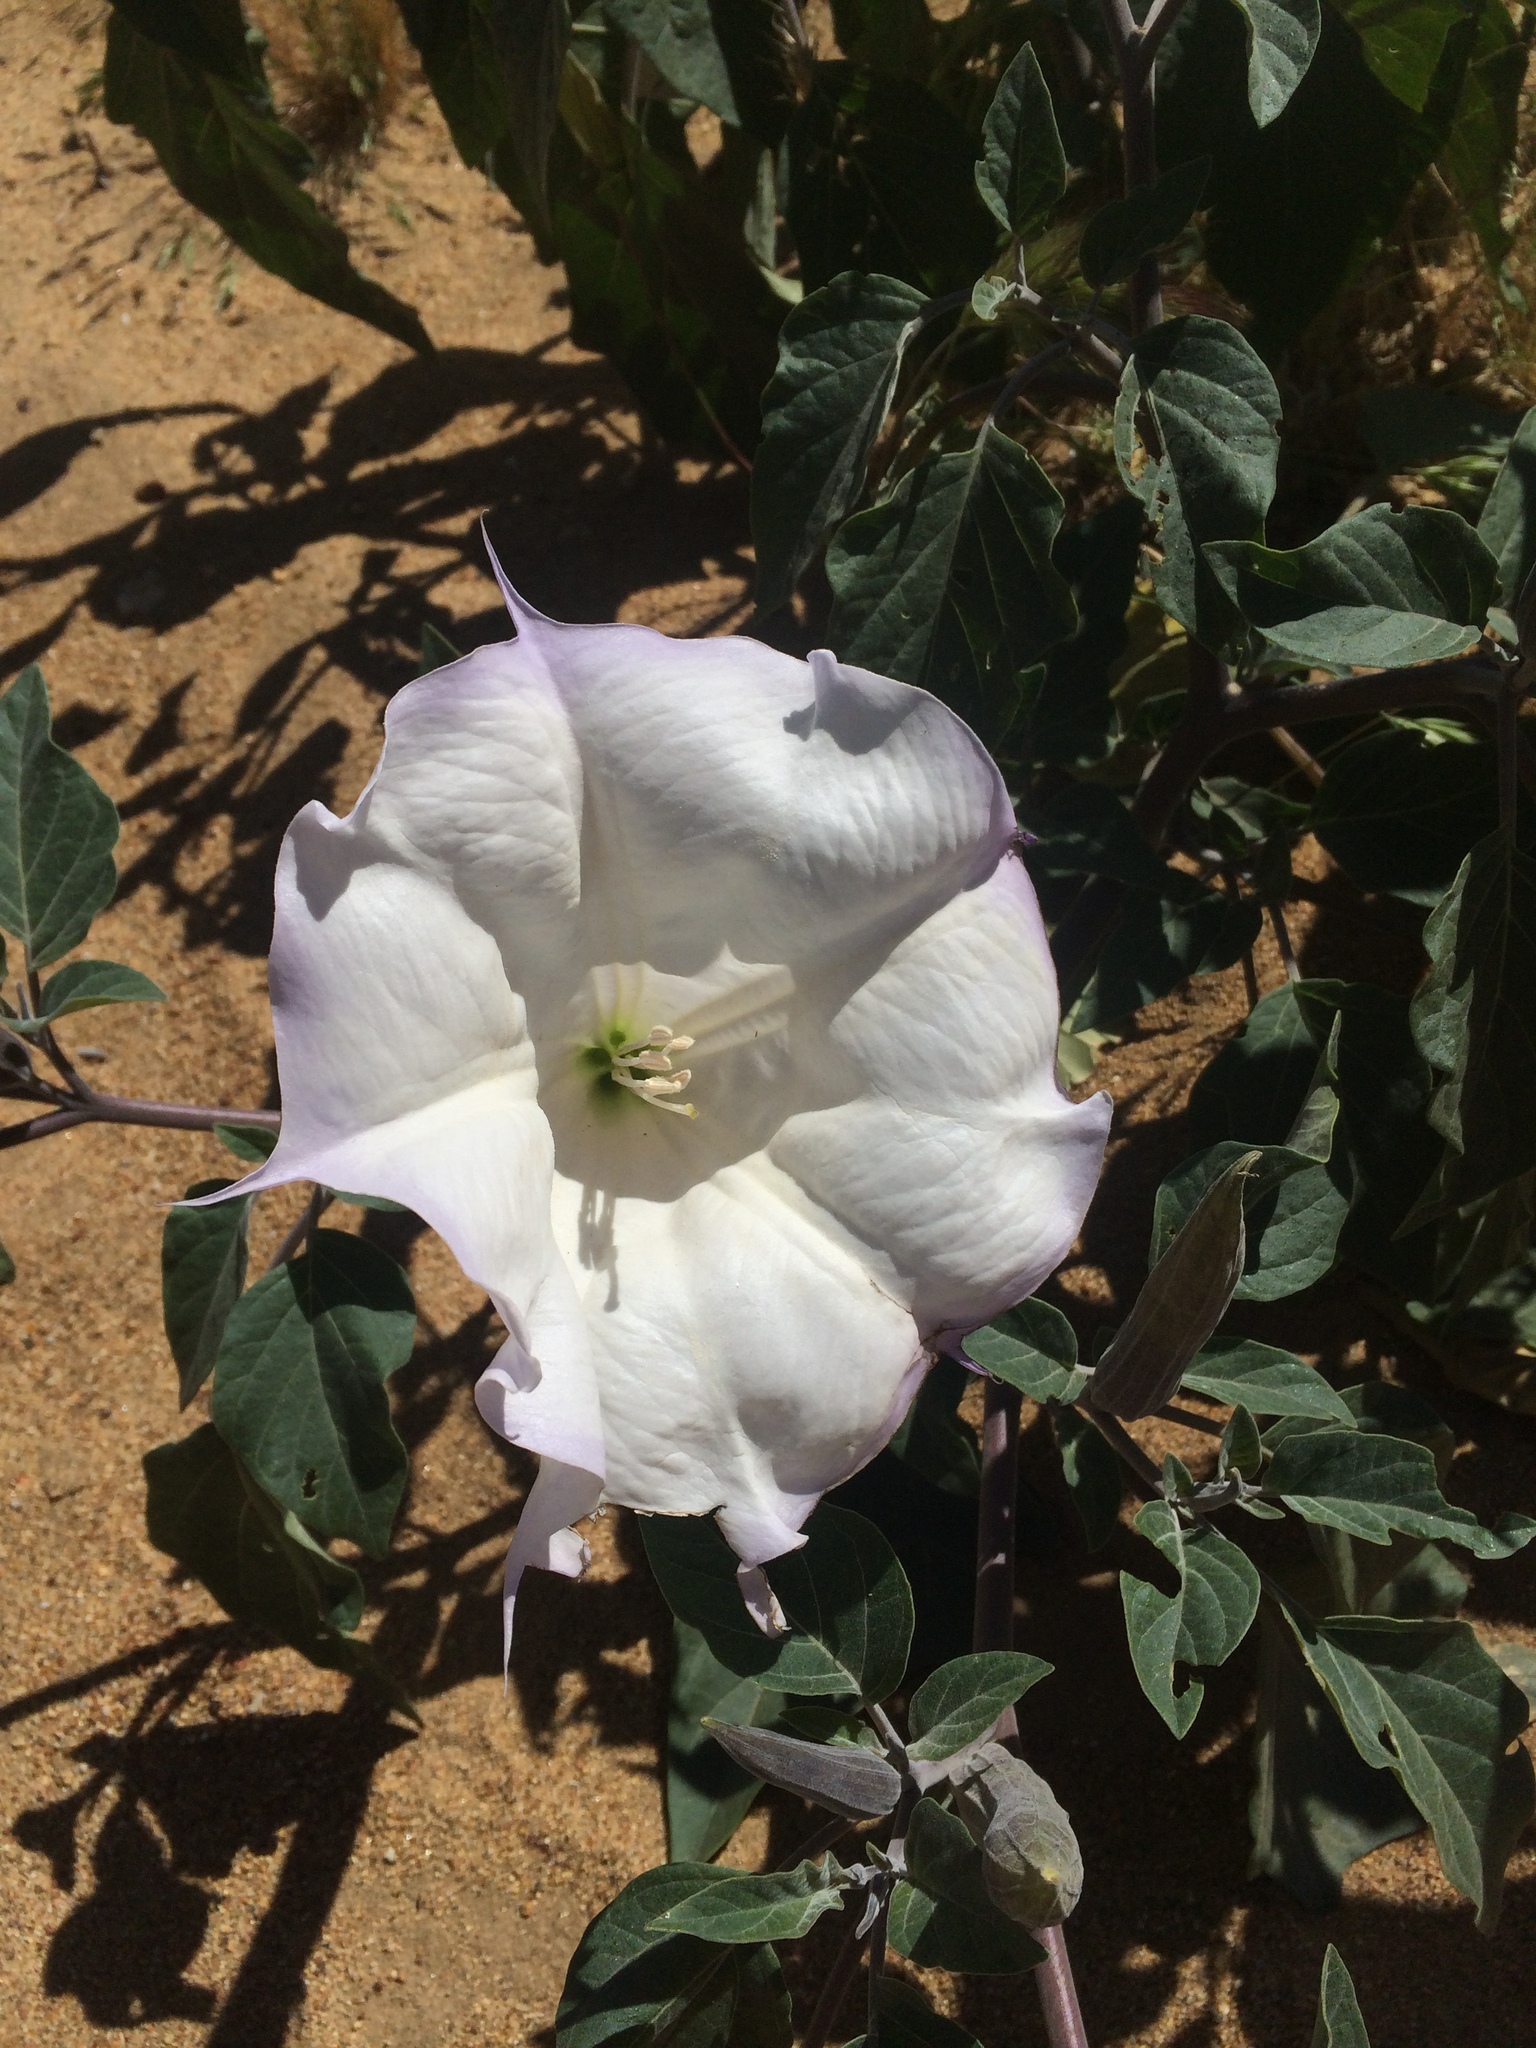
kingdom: Plantae
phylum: Tracheophyta
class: Magnoliopsida
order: Solanales
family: Solanaceae
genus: Datura
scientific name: Datura wrightii
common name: Sacred thorn-apple
